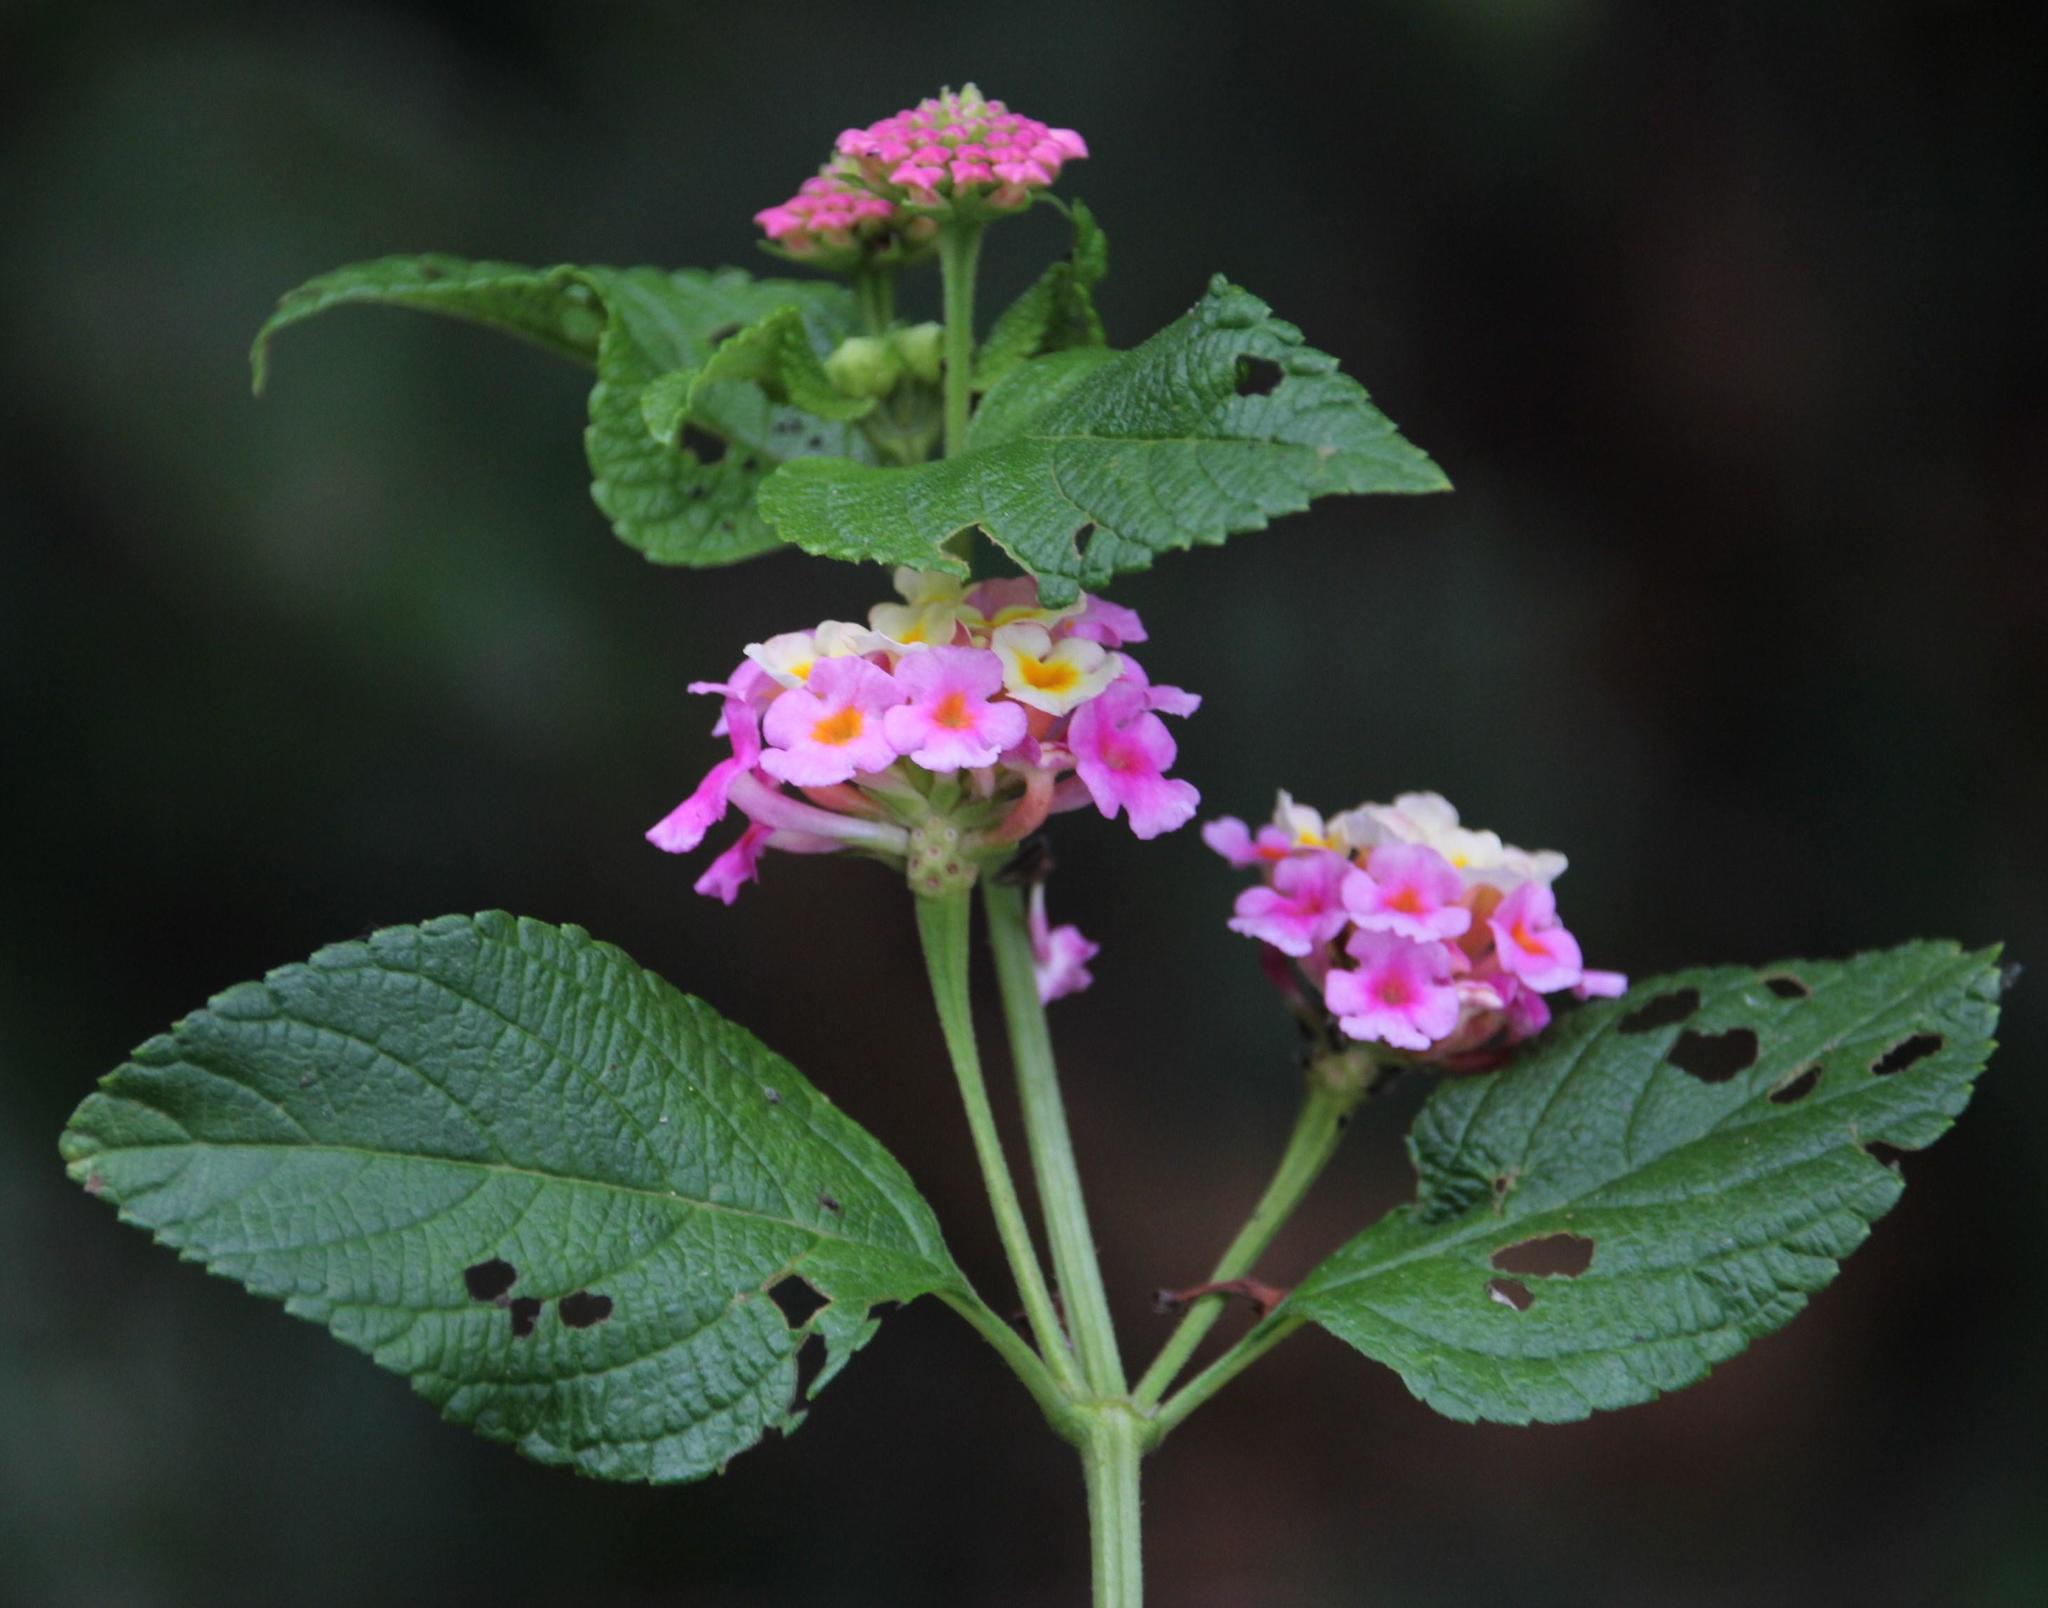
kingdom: Plantae
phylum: Tracheophyta
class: Magnoliopsida
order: Lamiales
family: Verbenaceae
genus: Lantana
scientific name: Lantana camara
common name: Lantana
